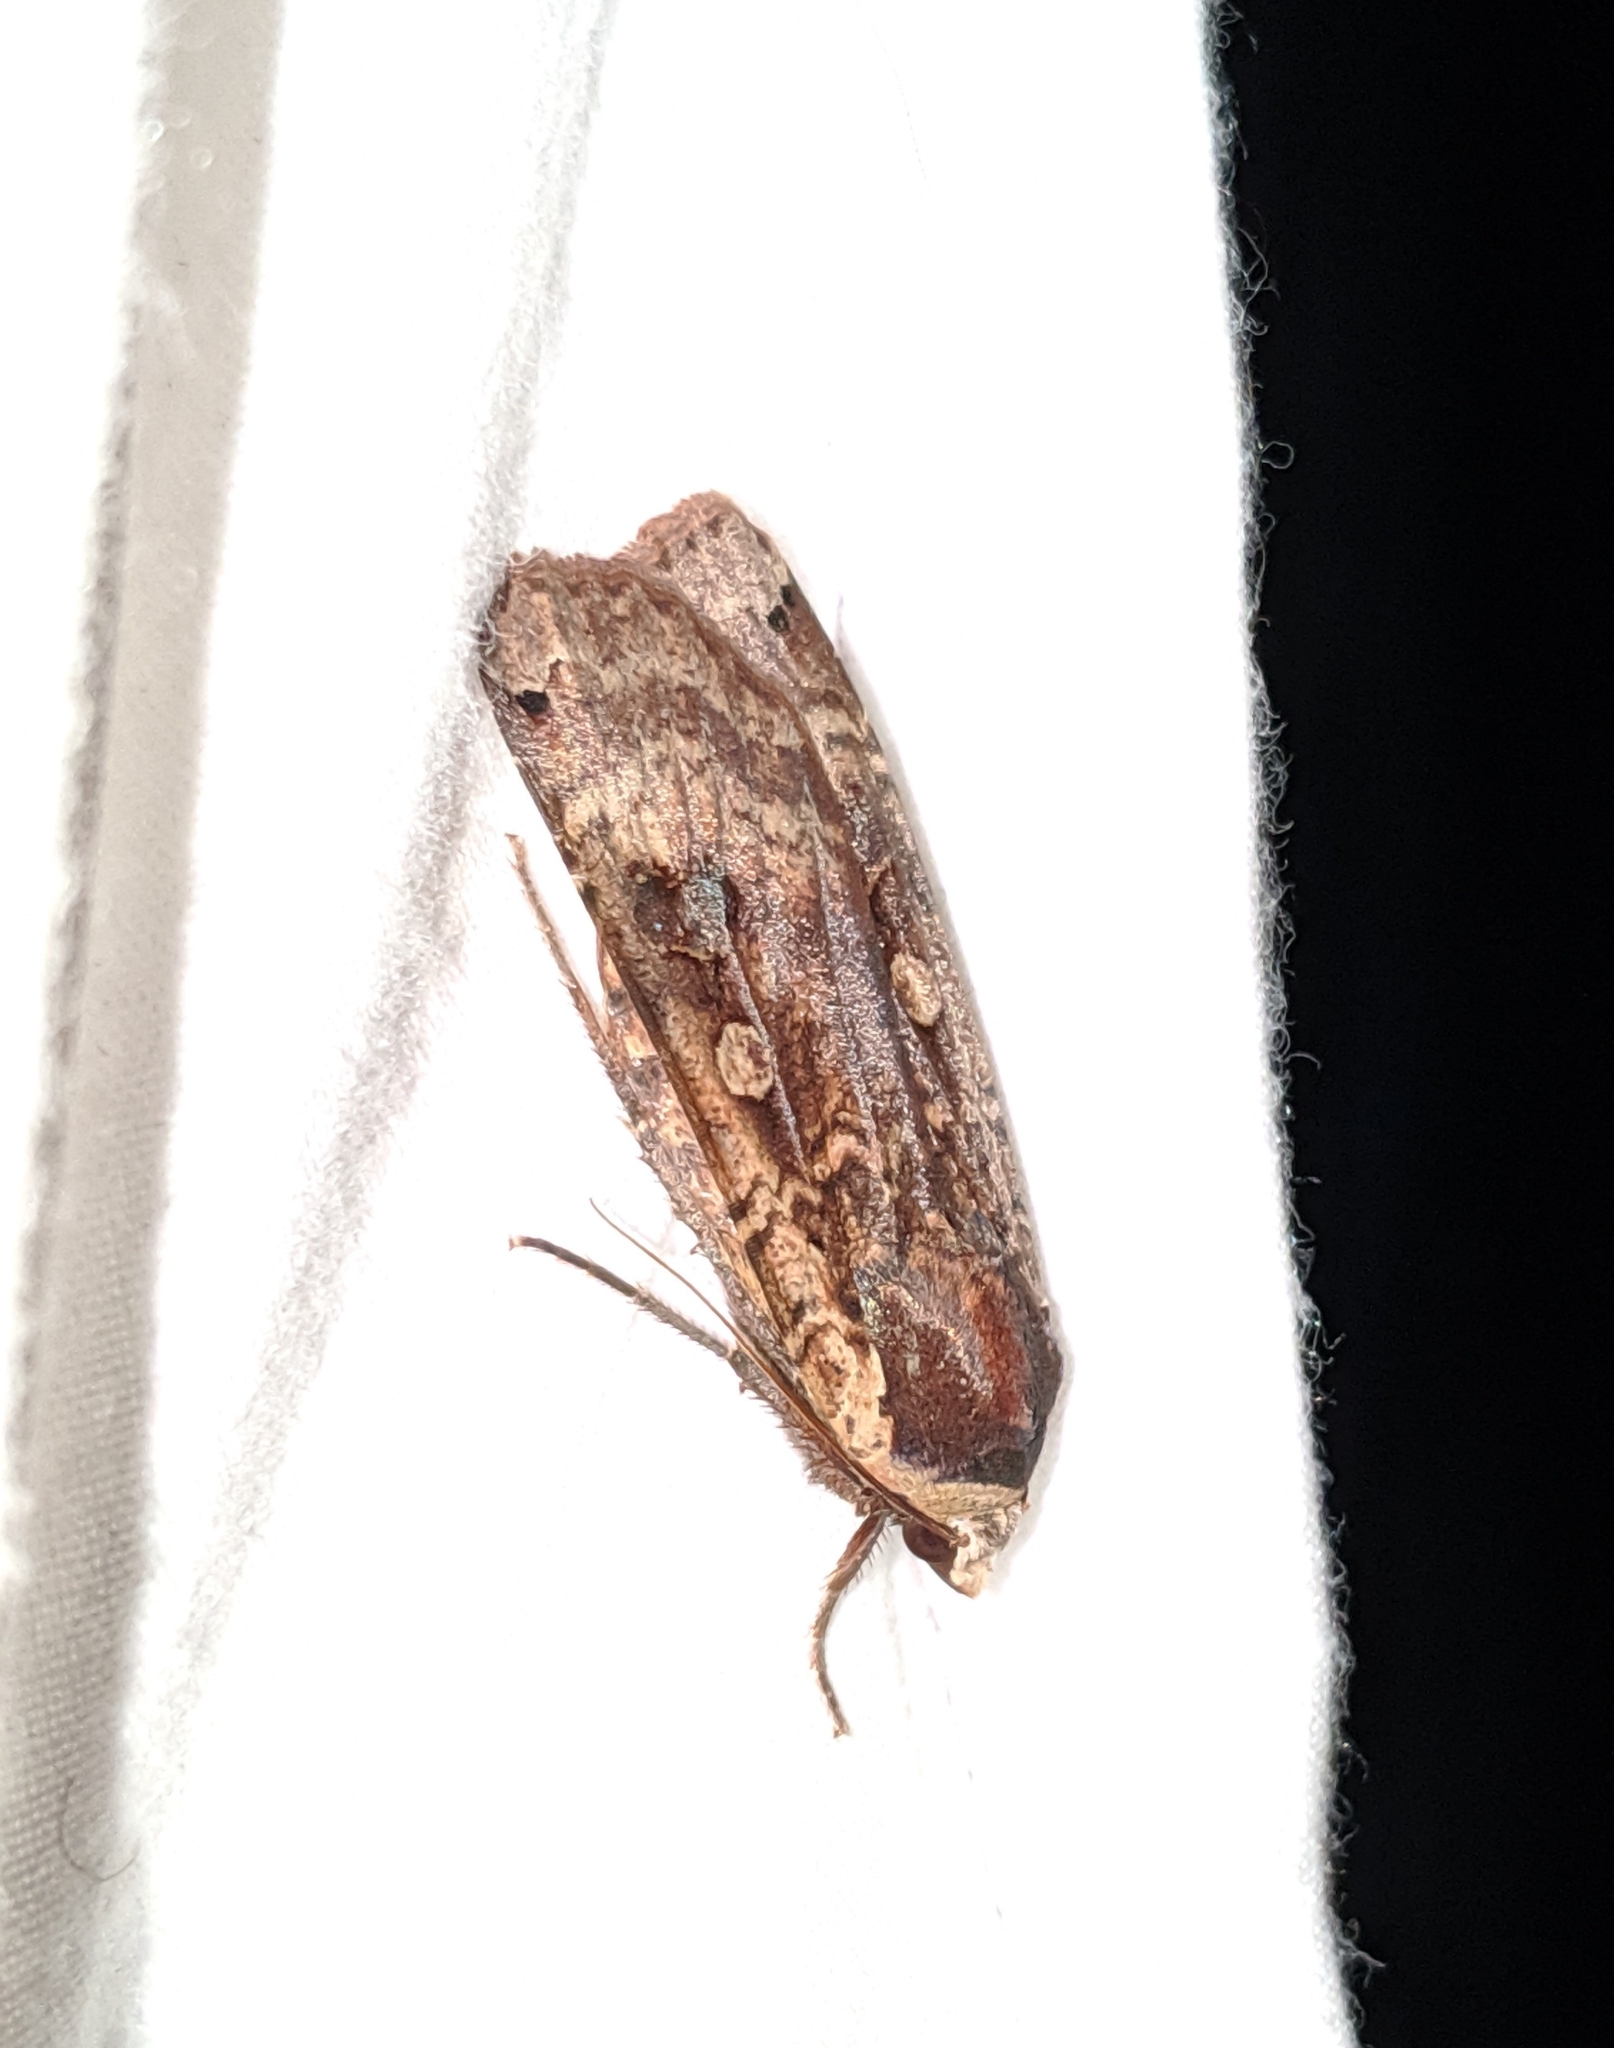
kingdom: Animalia
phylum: Arthropoda
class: Insecta
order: Lepidoptera
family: Noctuidae
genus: Noctua
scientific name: Noctua pronuba
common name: Large yellow underwing
